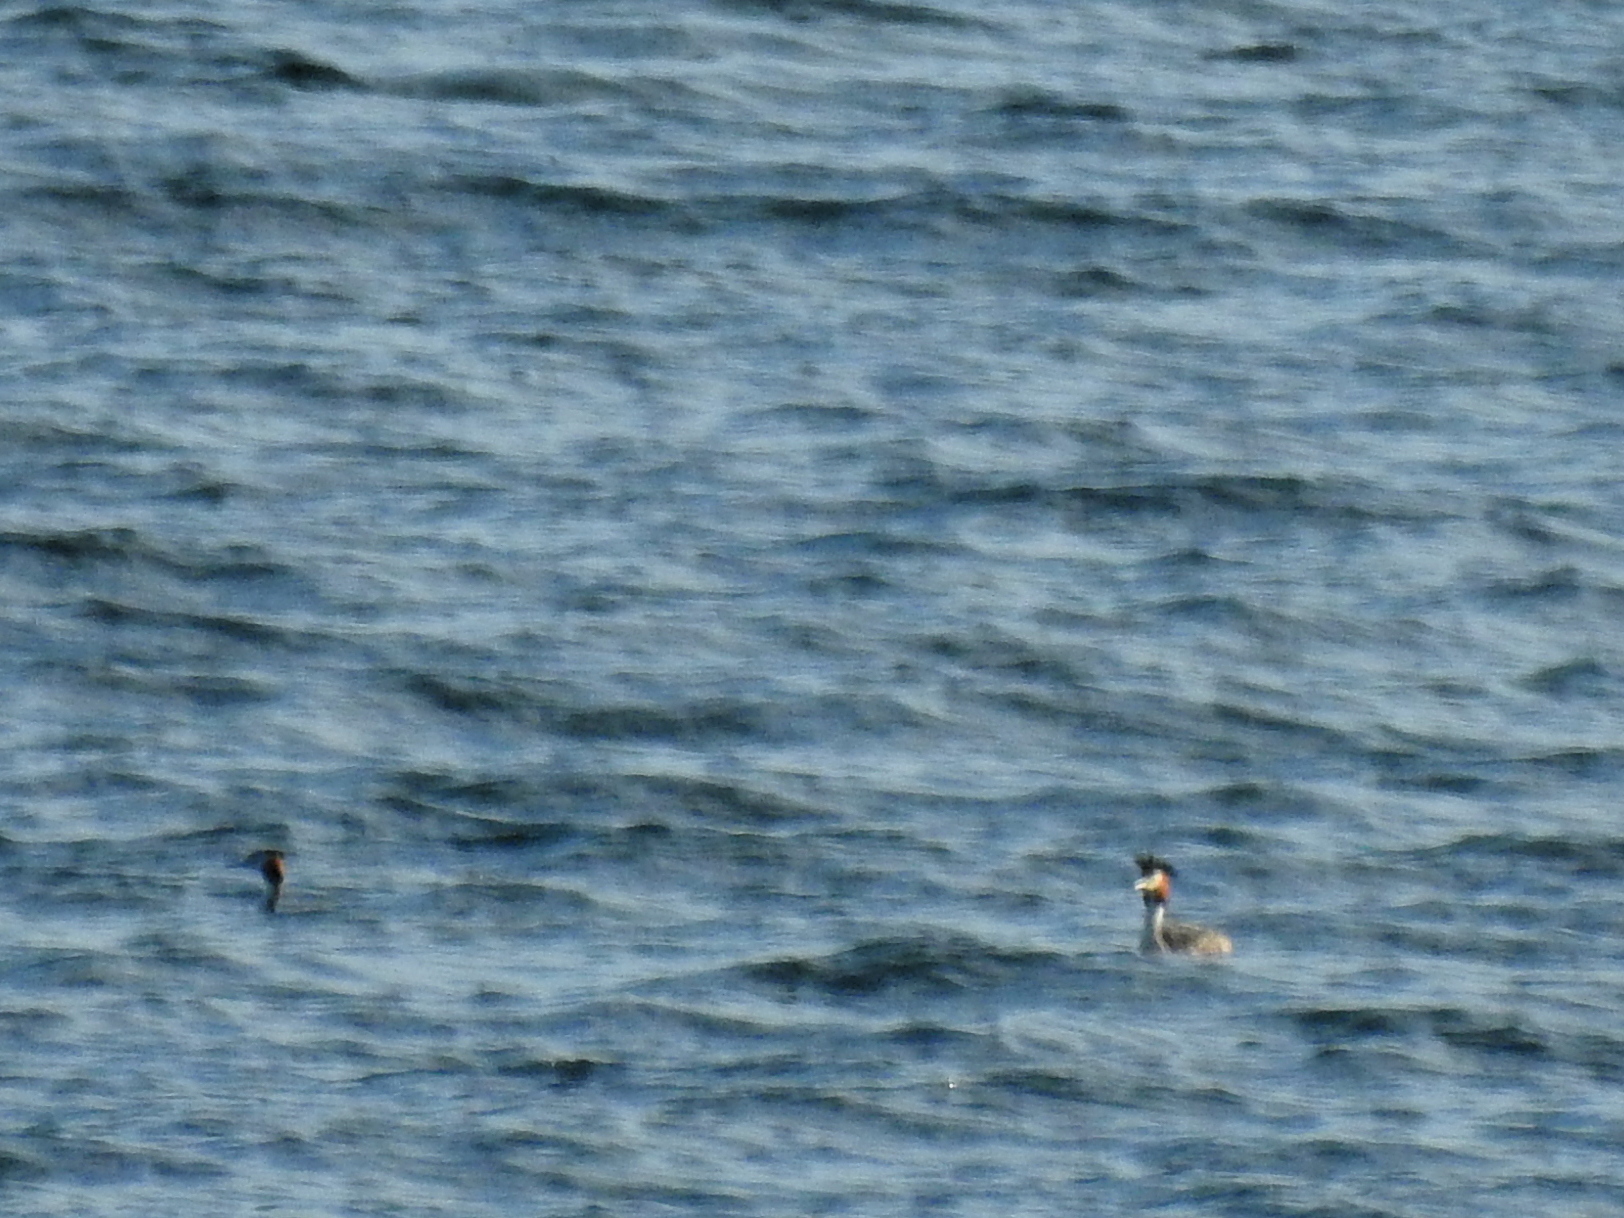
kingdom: Animalia
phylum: Chordata
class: Aves
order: Podicipediformes
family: Podicipedidae
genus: Podiceps
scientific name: Podiceps cristatus
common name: Great crested grebe
